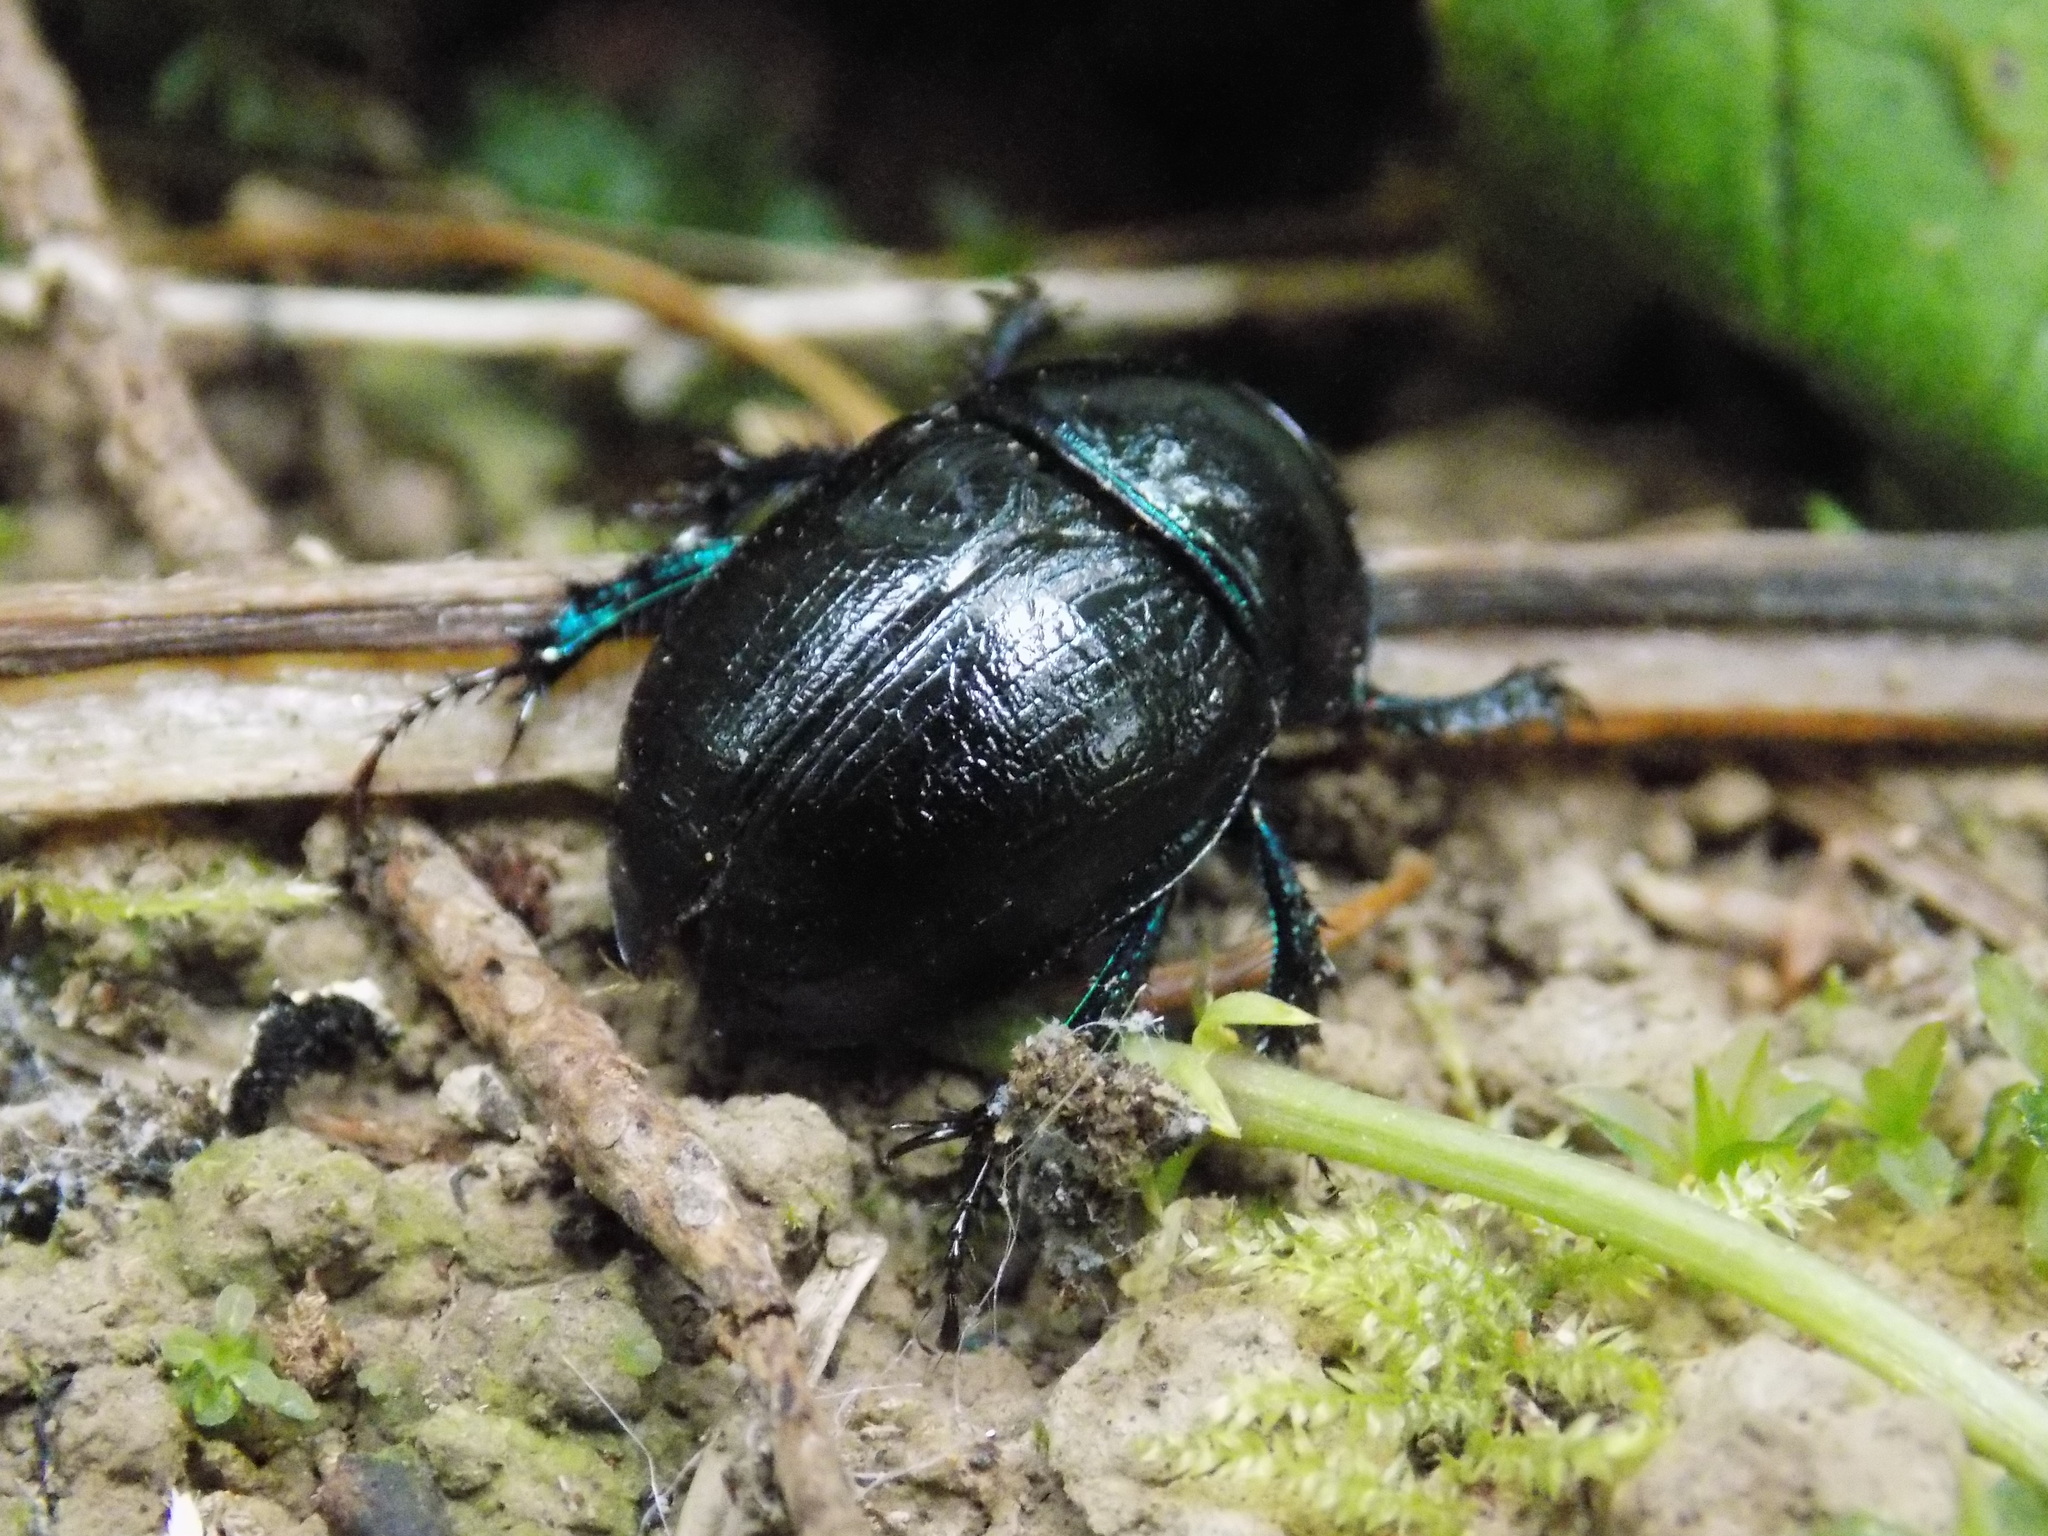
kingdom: Animalia
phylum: Arthropoda
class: Insecta
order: Coleoptera
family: Geotrupidae
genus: Anoplotrupes
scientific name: Anoplotrupes stercorosus
